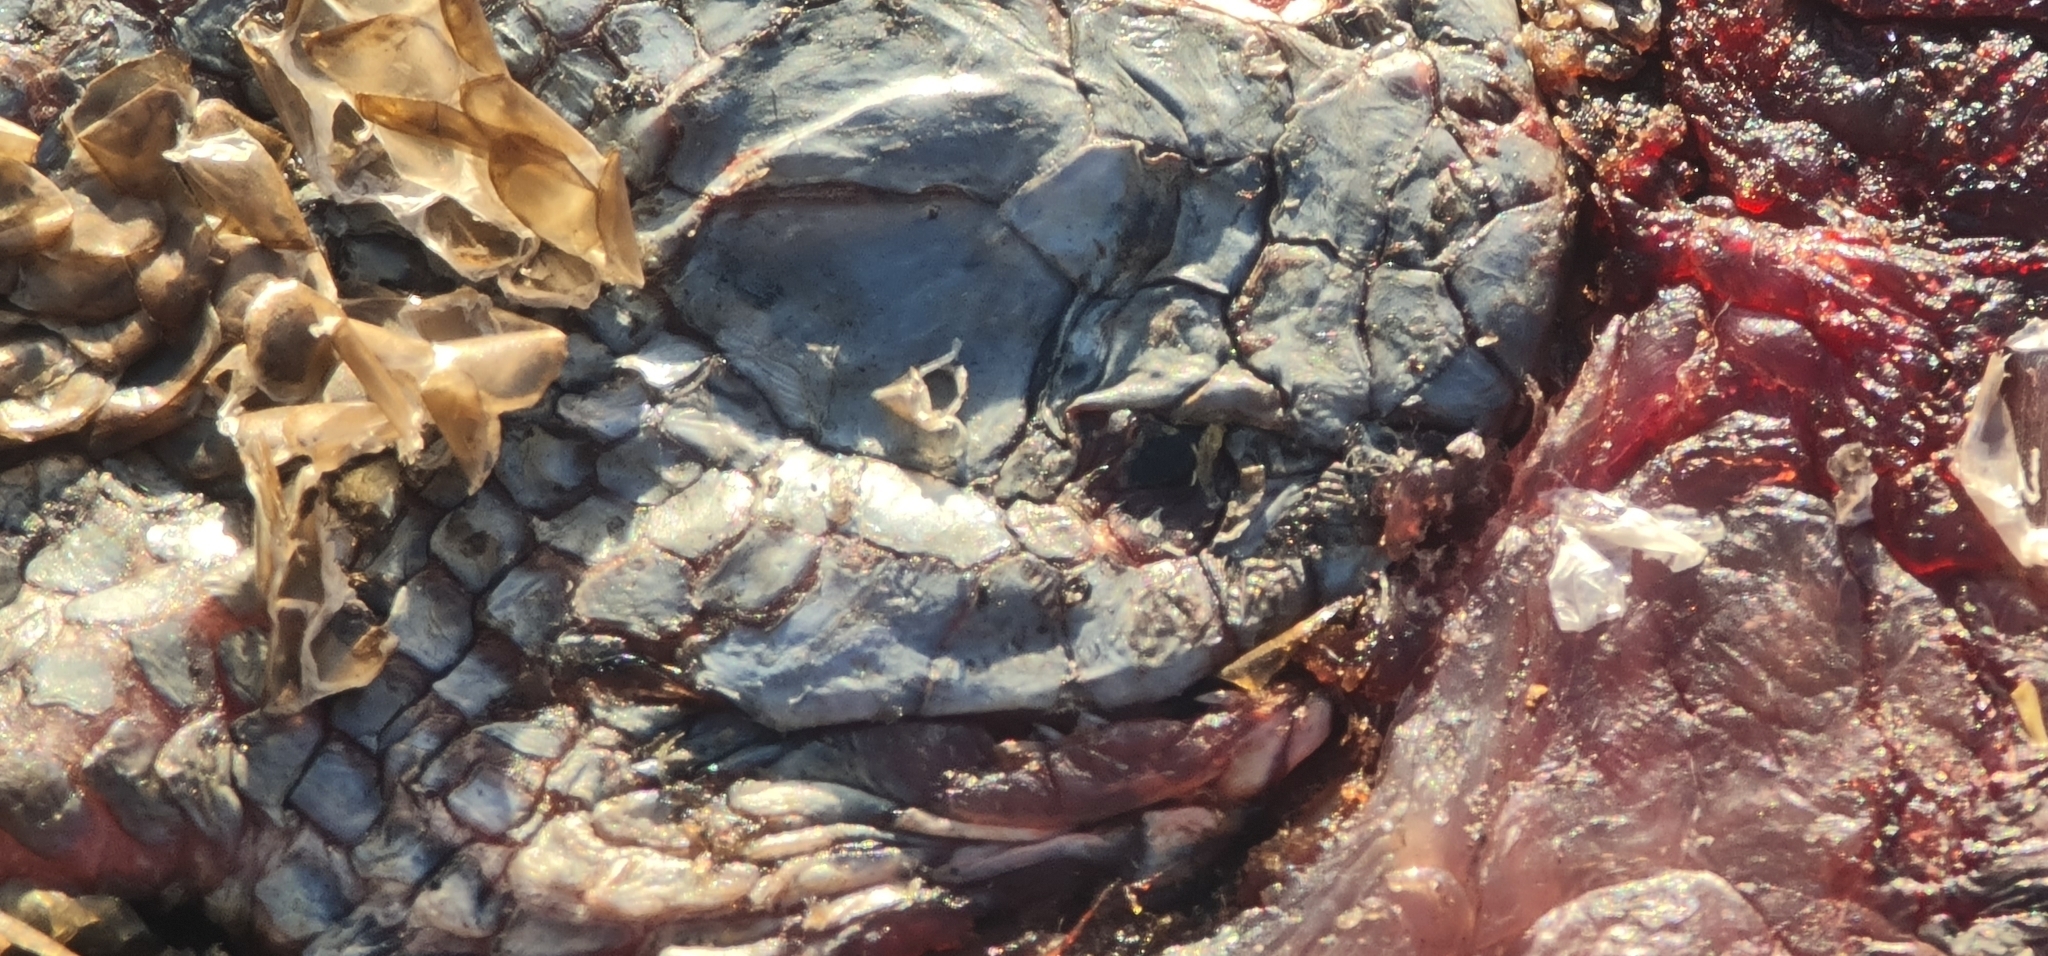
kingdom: Animalia
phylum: Chordata
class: Squamata
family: Elapidae
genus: Pseudonaja
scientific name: Pseudonaja textilis
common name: Eastern brown snake
